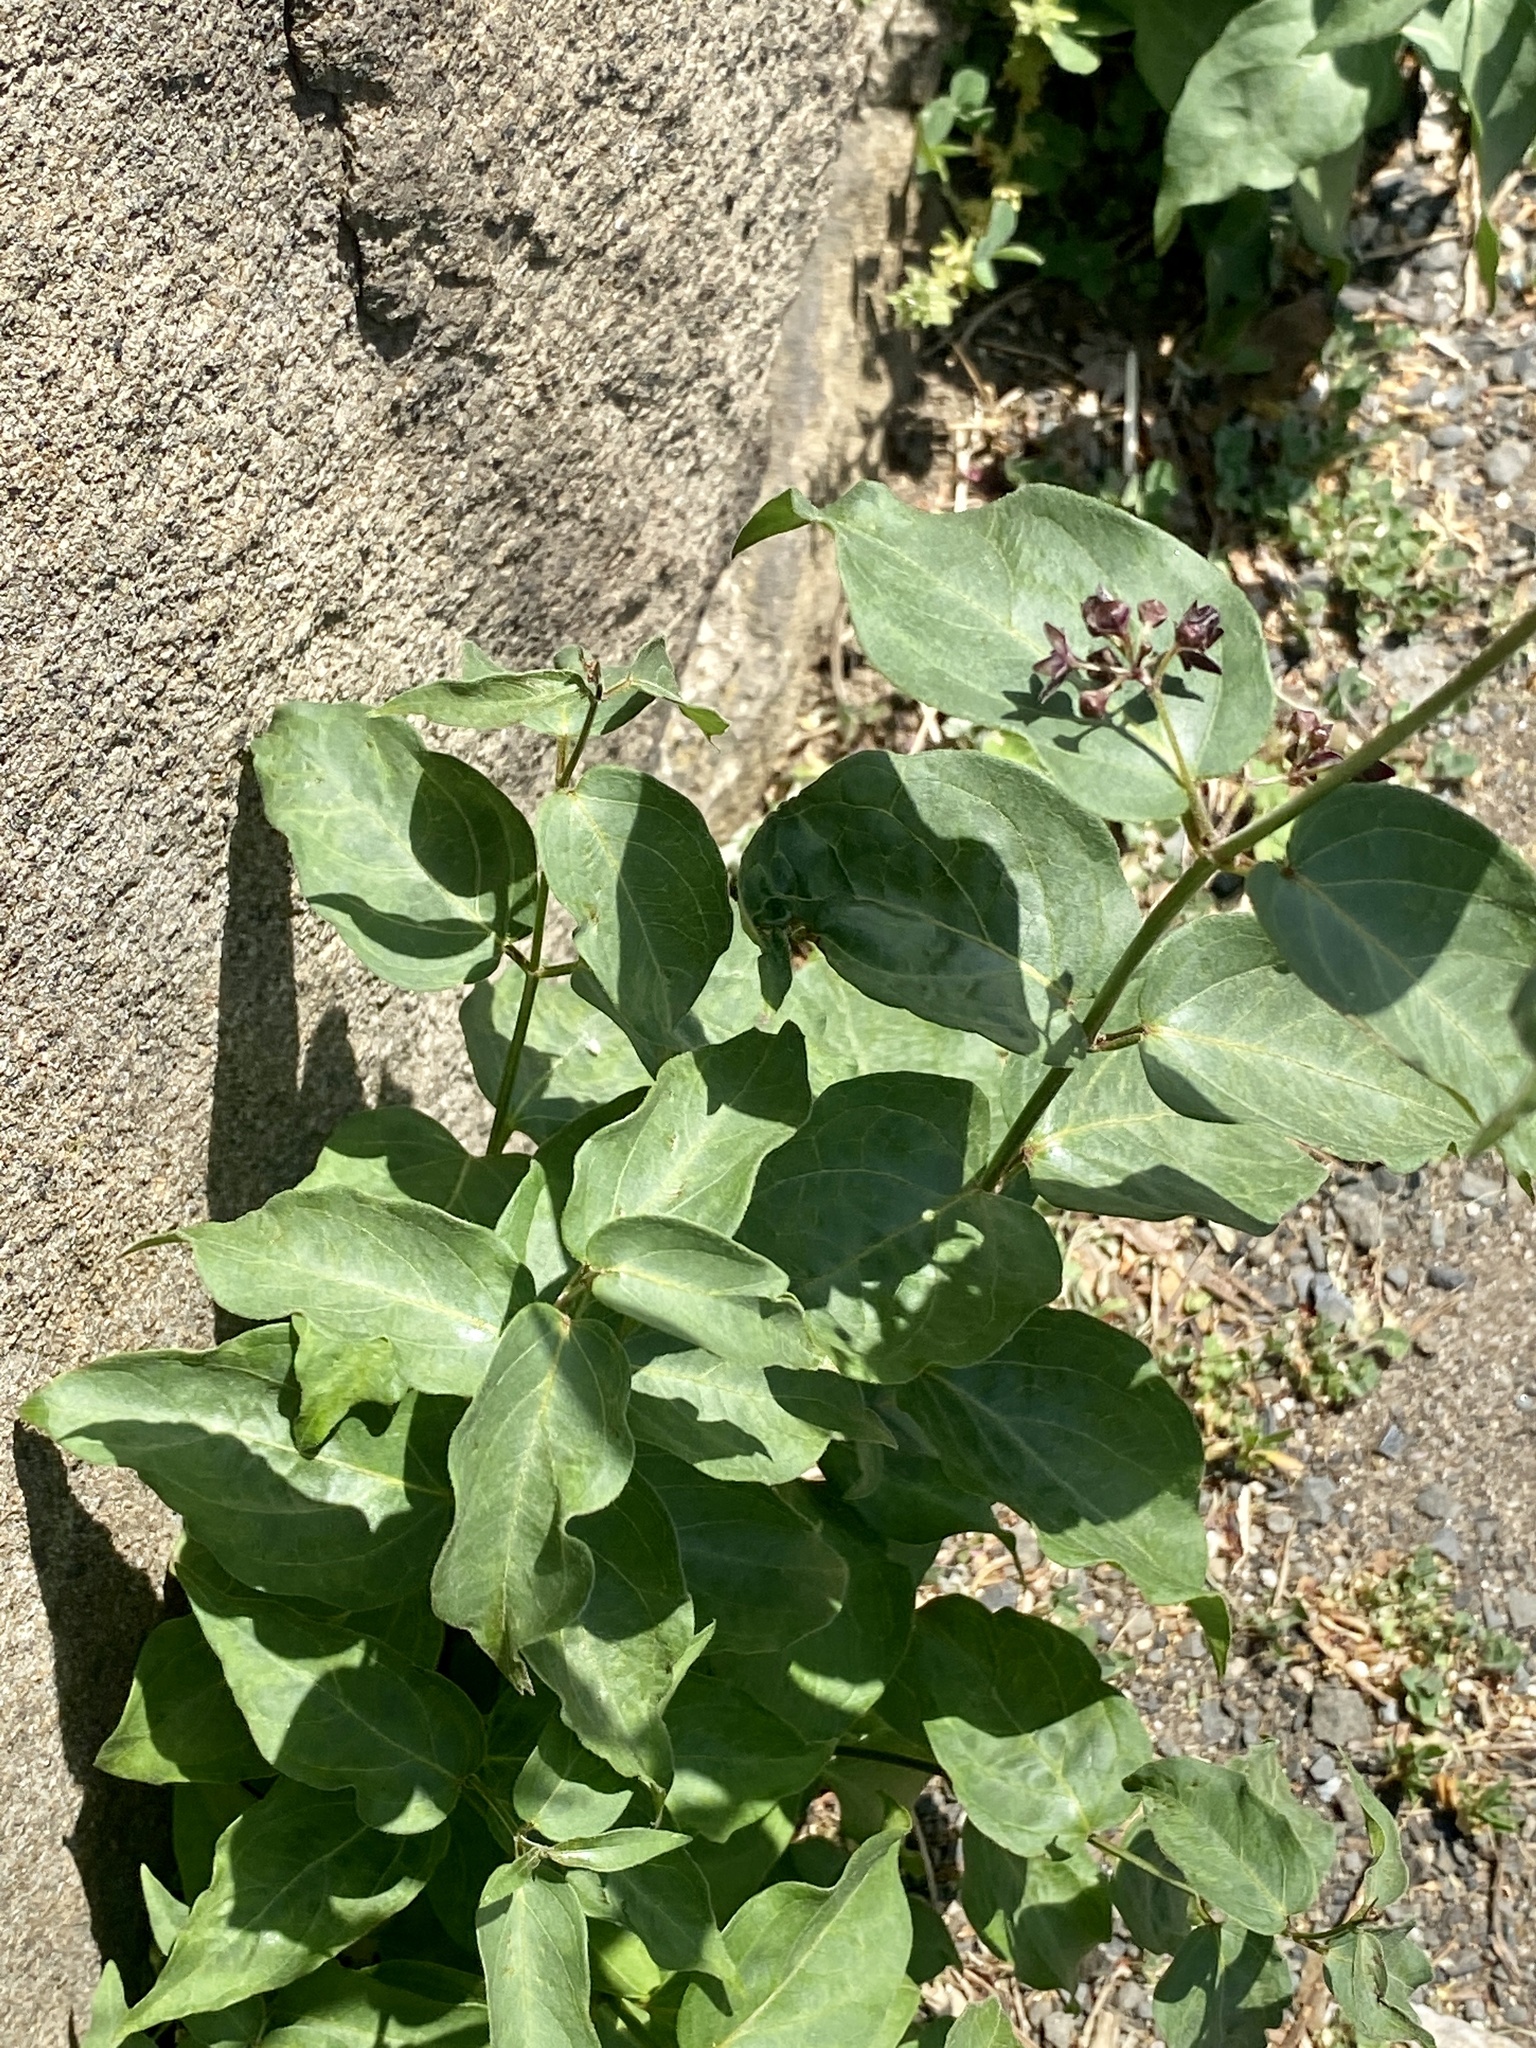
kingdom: Plantae
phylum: Tracheophyta
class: Magnoliopsida
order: Gentianales
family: Apocynaceae
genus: Vincetoxicum
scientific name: Vincetoxicum nigrum
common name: Black swallow-wort
